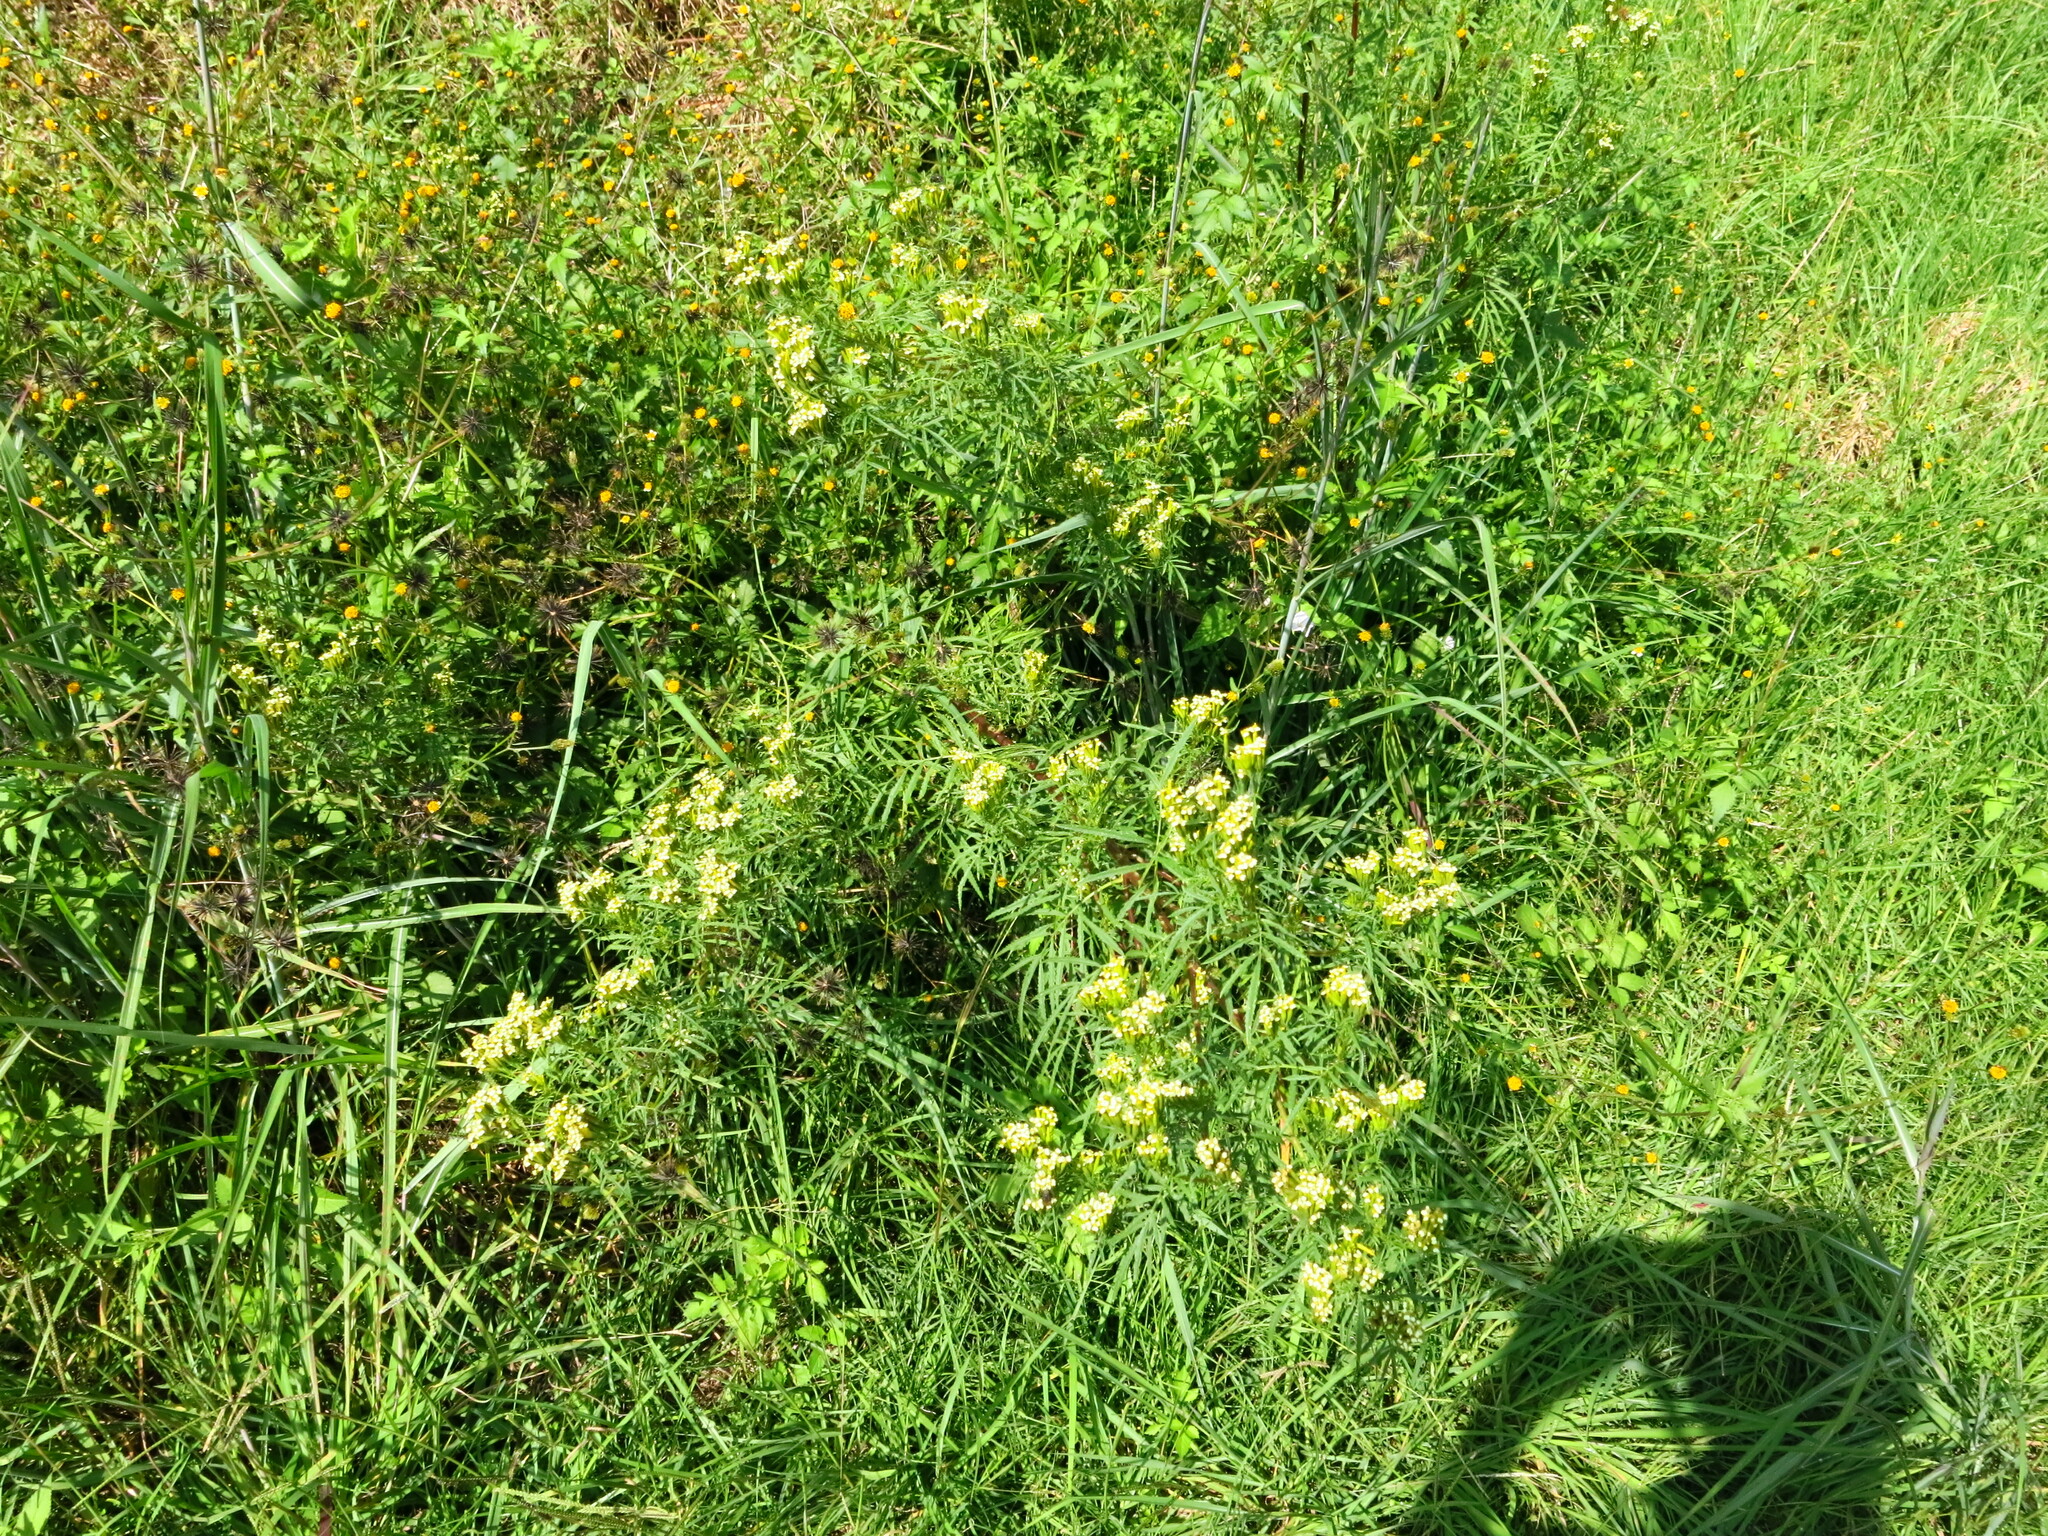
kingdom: Plantae
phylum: Tracheophyta
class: Magnoliopsida
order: Asterales
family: Asteraceae
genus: Tagetes
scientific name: Tagetes minuta
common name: Muster john henry
